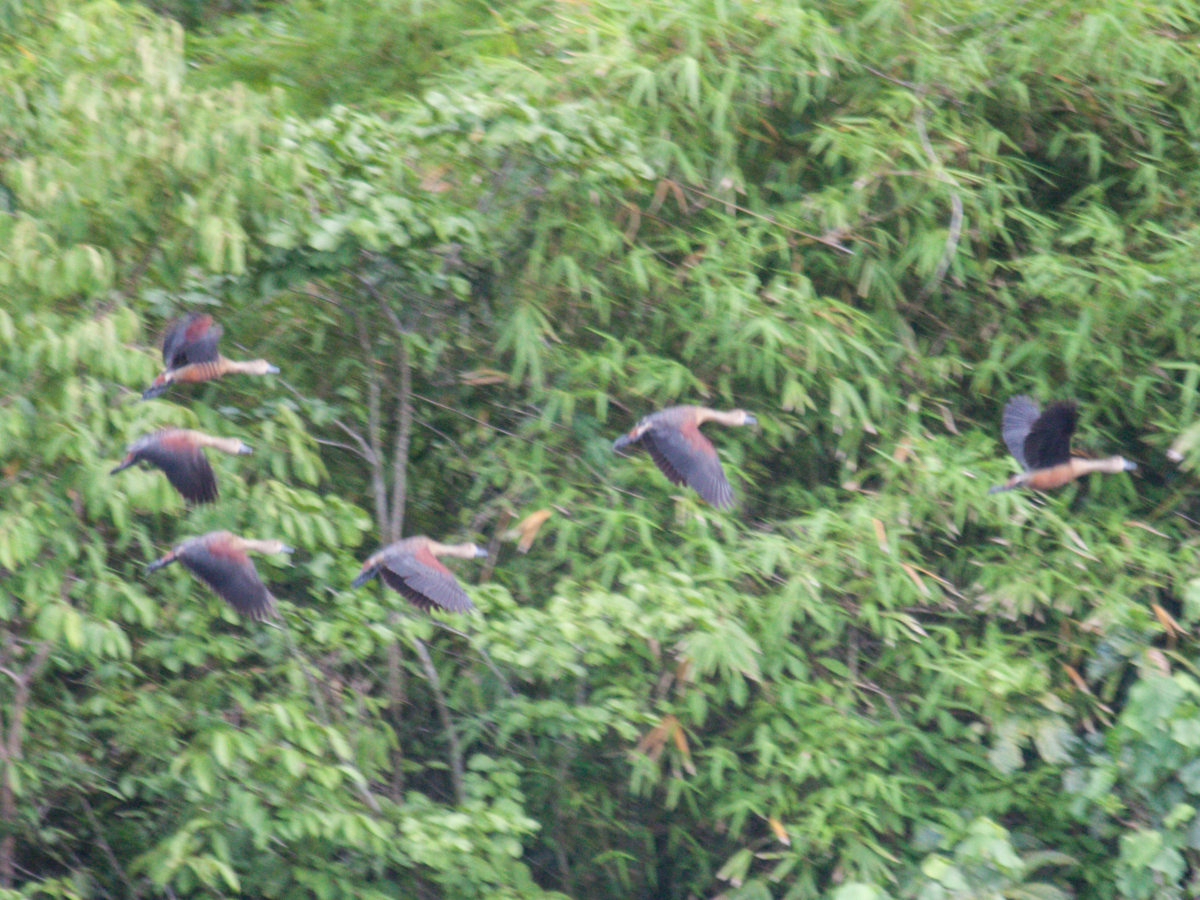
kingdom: Animalia
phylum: Chordata
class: Aves
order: Anseriformes
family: Anatidae
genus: Dendrocygna
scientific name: Dendrocygna javanica
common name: Lesser whistling-duck
